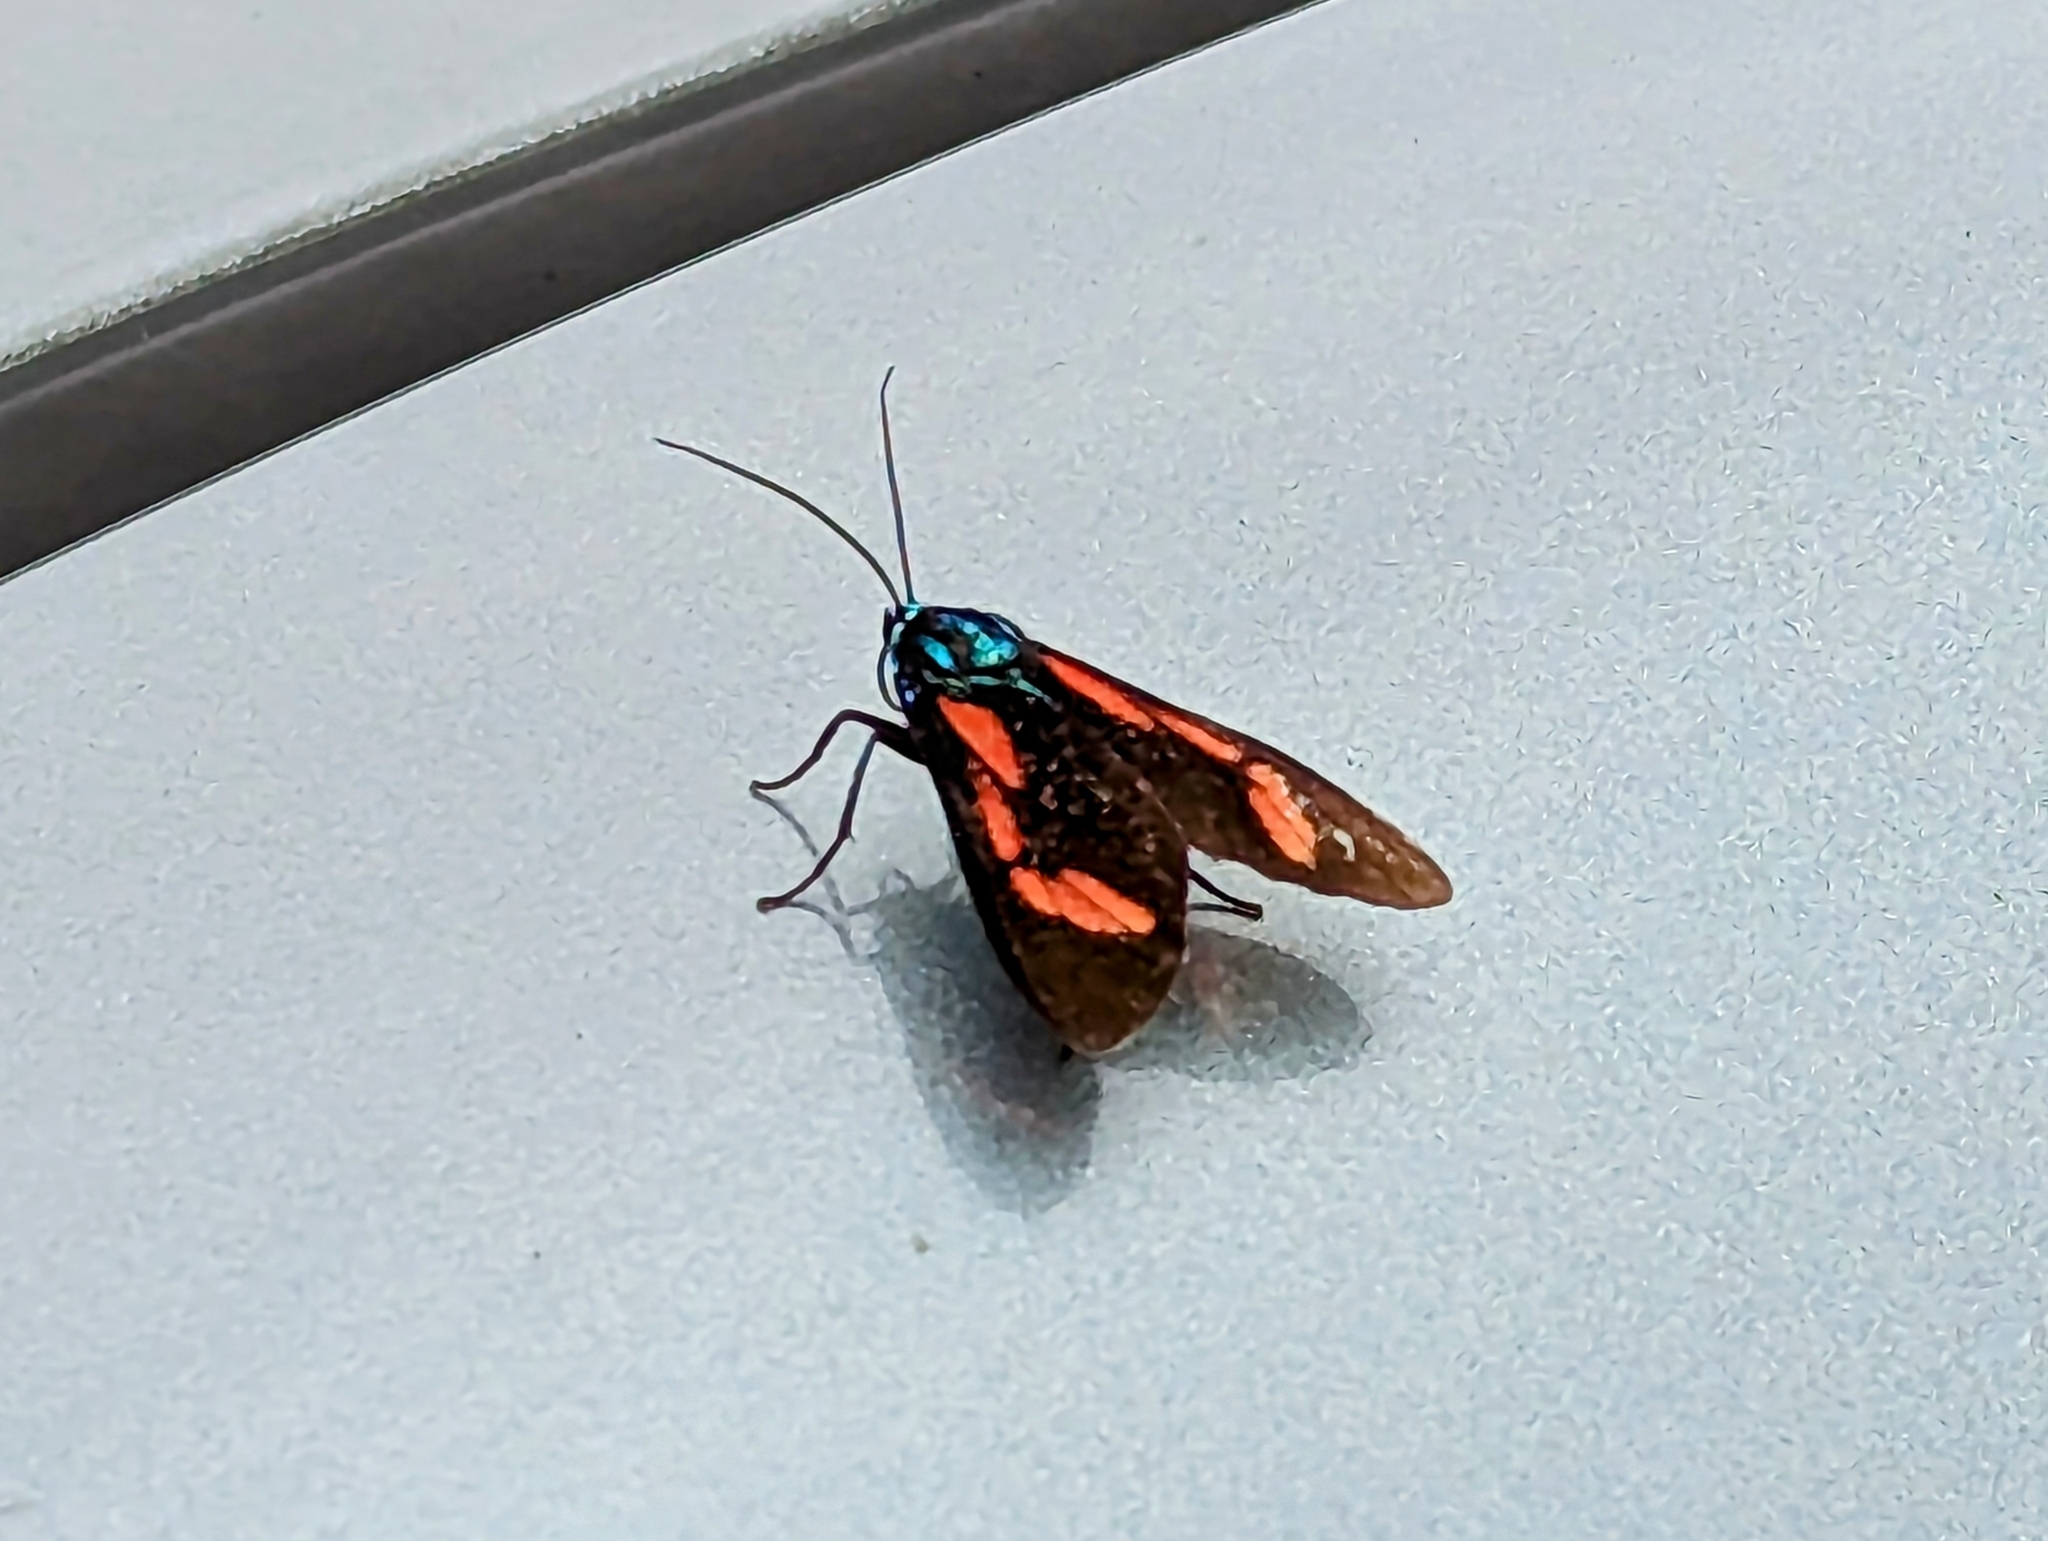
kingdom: Animalia
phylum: Arthropoda
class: Insecta
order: Lepidoptera
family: Erebidae
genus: Cyanopepla
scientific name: Cyanopepla hurama
